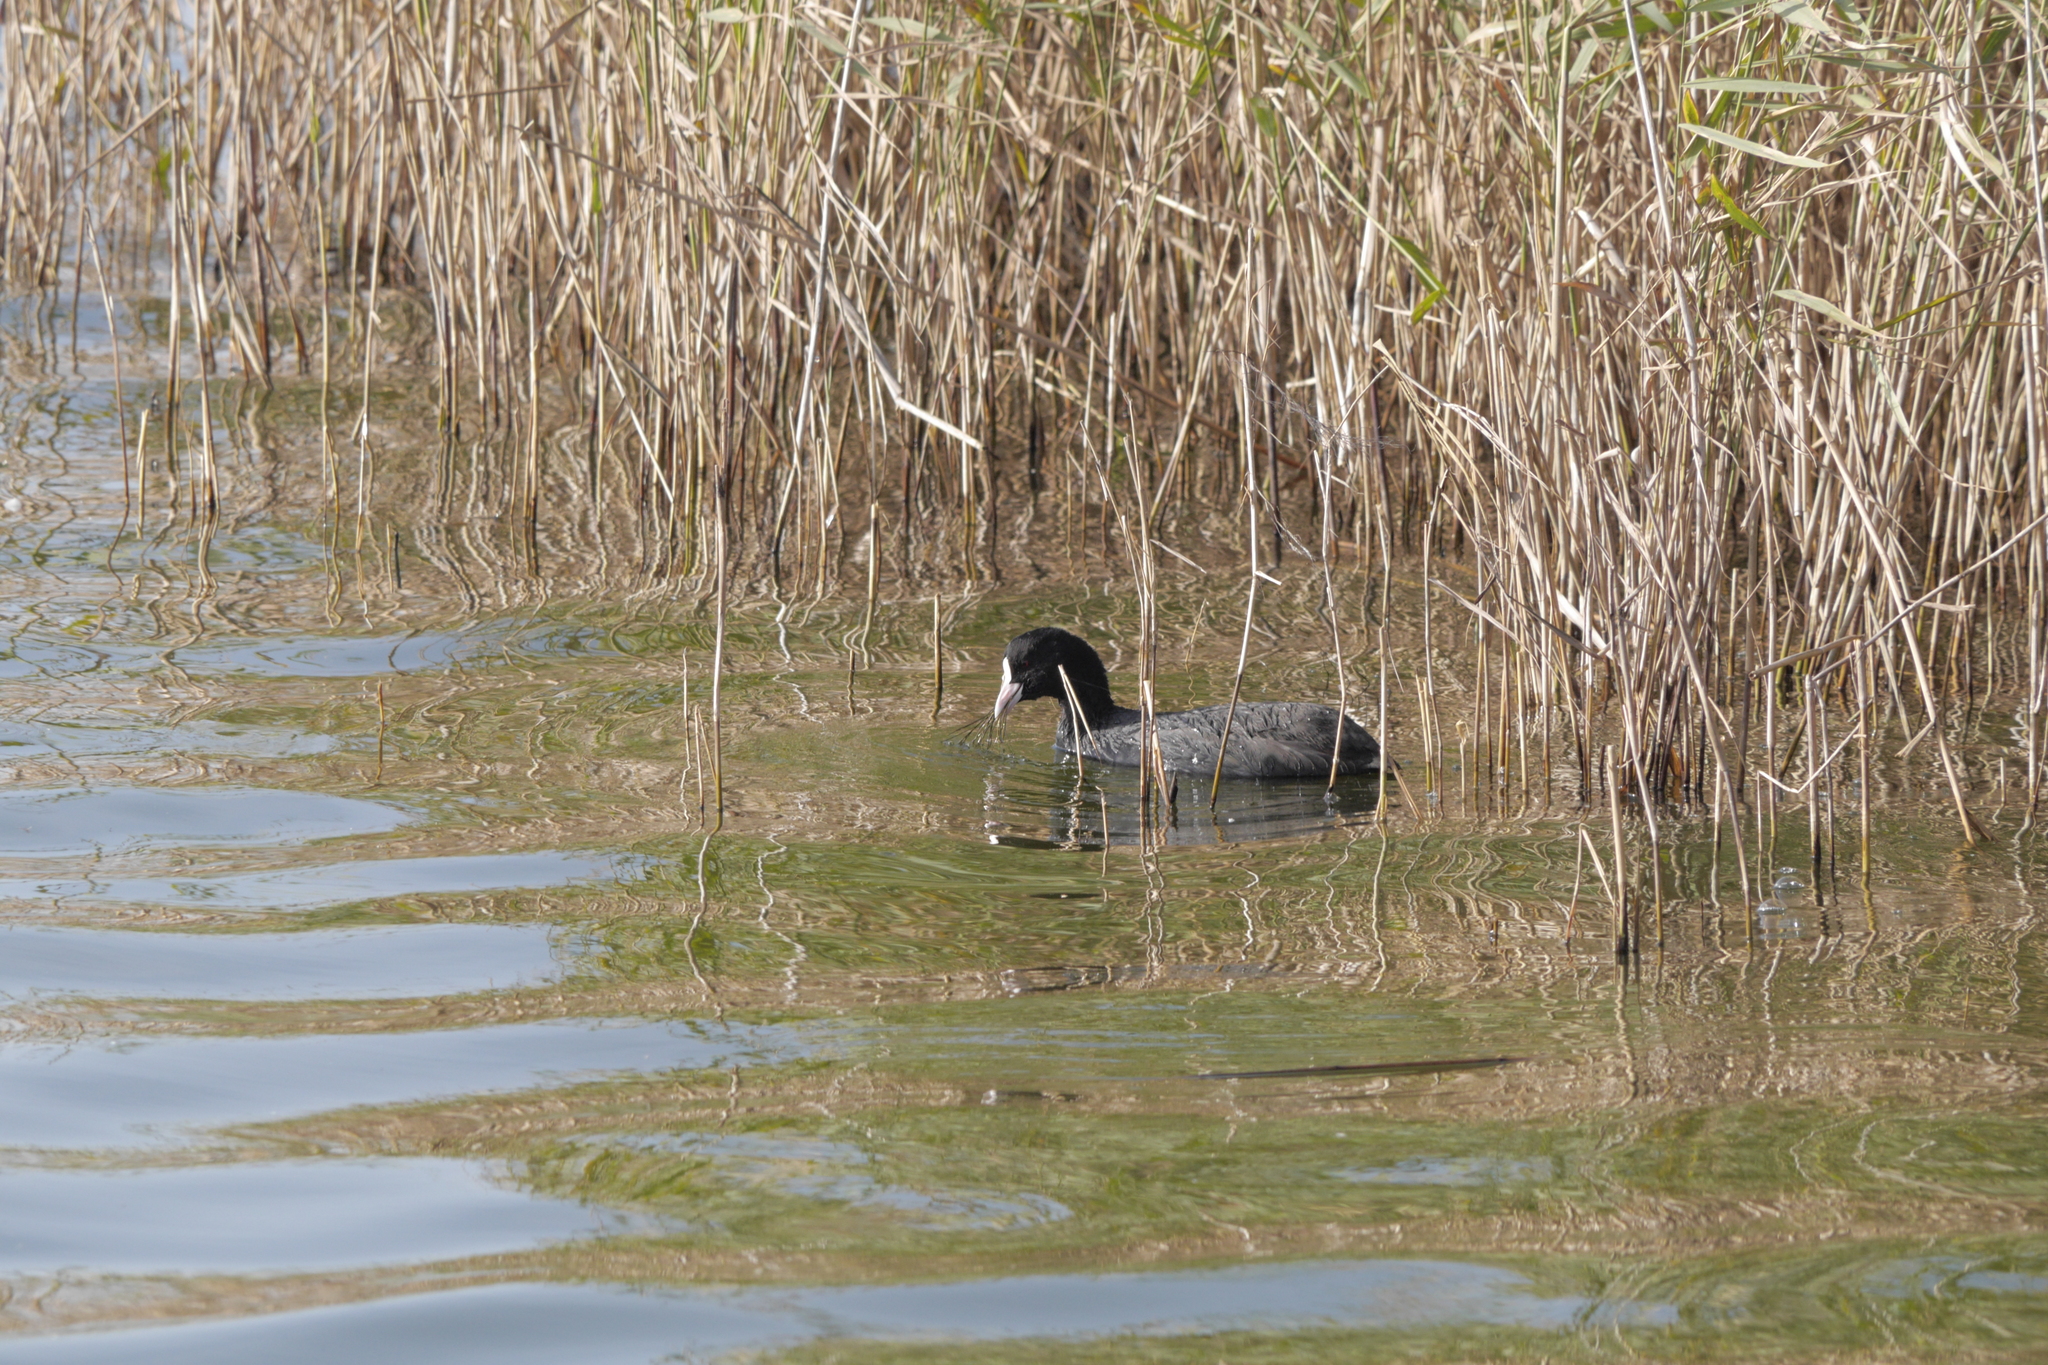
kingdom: Animalia
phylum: Chordata
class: Aves
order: Gruiformes
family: Rallidae
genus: Fulica
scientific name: Fulica atra
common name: Eurasian coot
